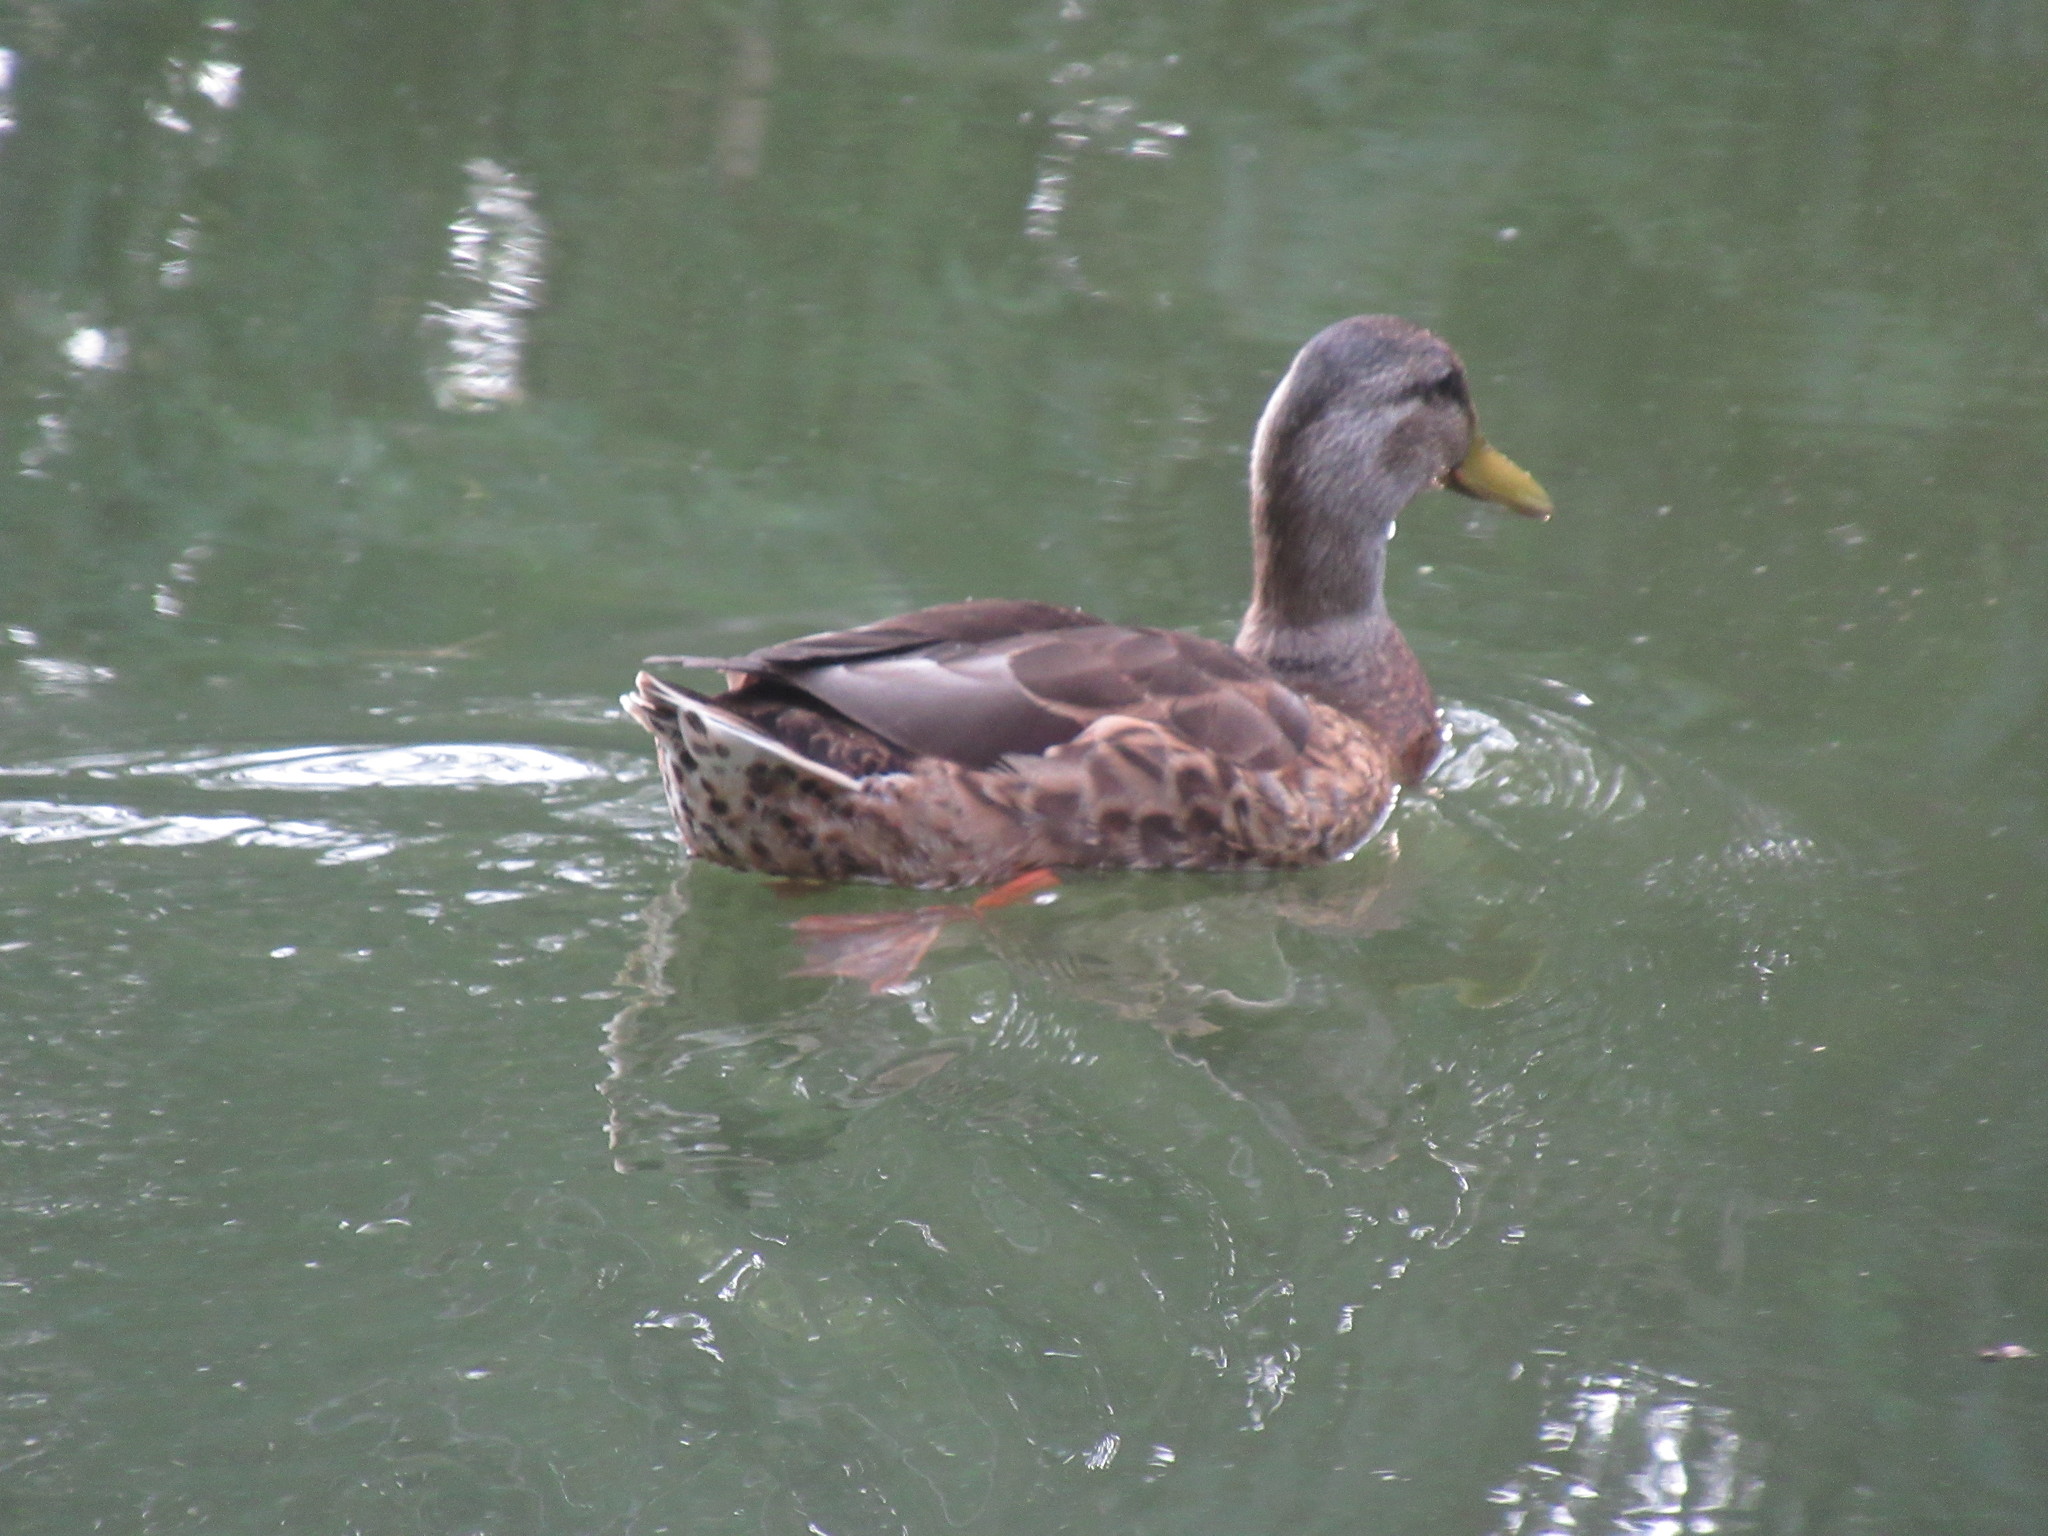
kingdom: Animalia
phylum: Chordata
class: Aves
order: Anseriformes
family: Anatidae
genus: Anas
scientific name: Anas platyrhynchos
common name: Mallard
